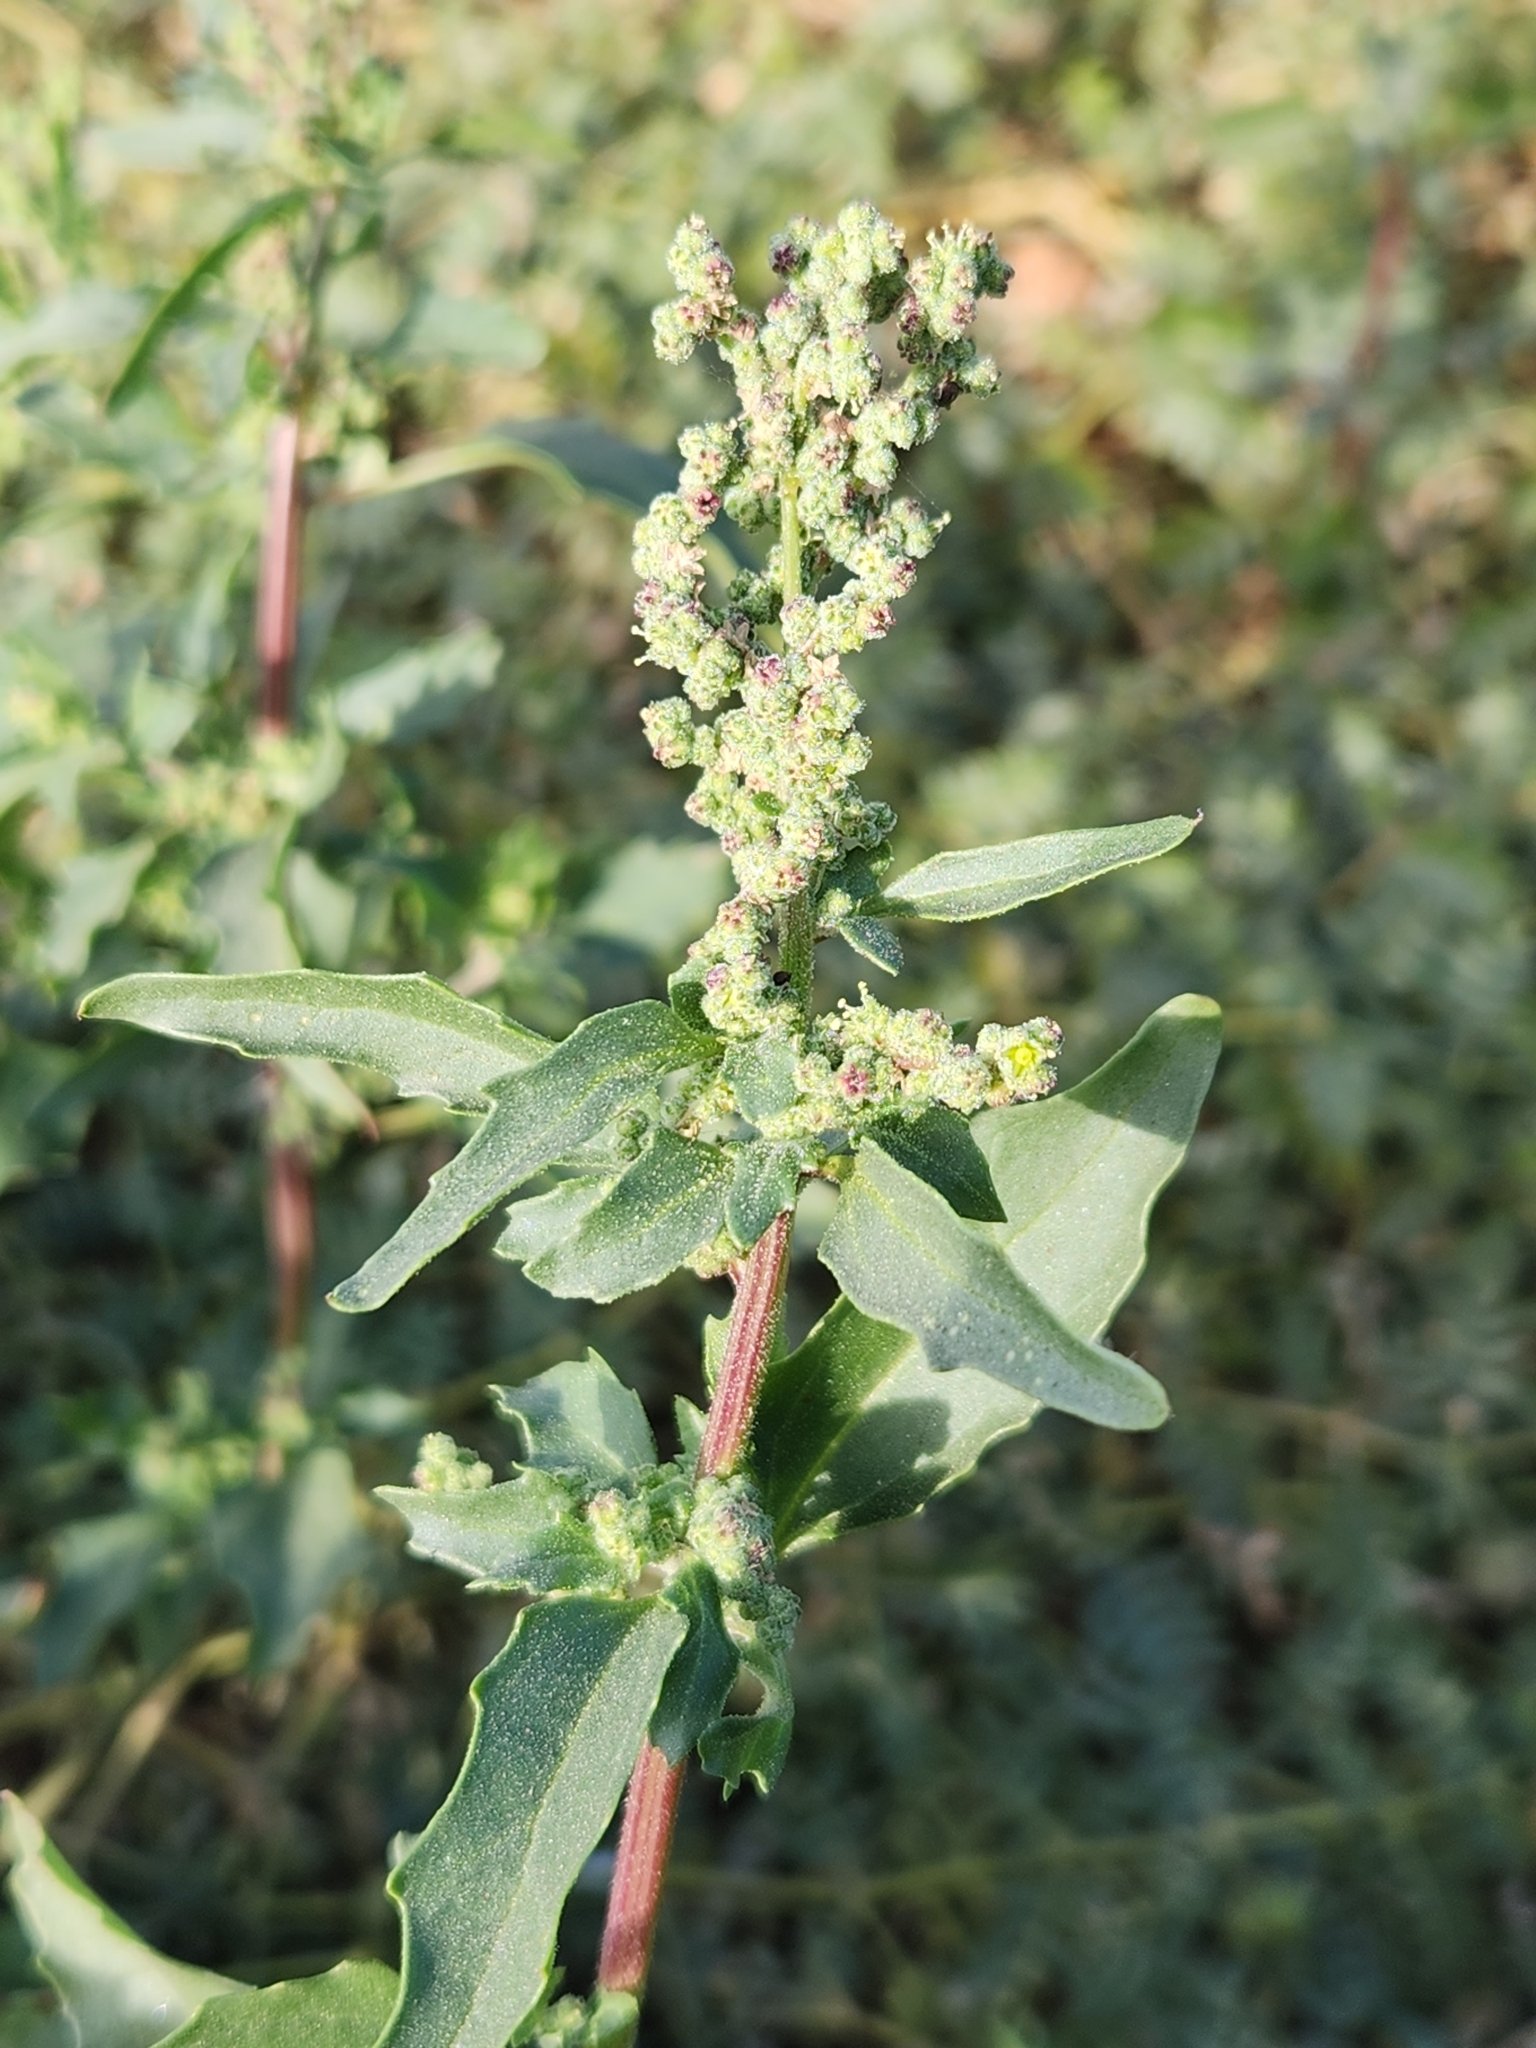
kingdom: Plantae
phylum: Tracheophyta
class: Magnoliopsida
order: Caryophyllales
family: Amaranthaceae
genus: Chenopodiastrum
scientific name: Chenopodiastrum murale
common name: Sowbane
